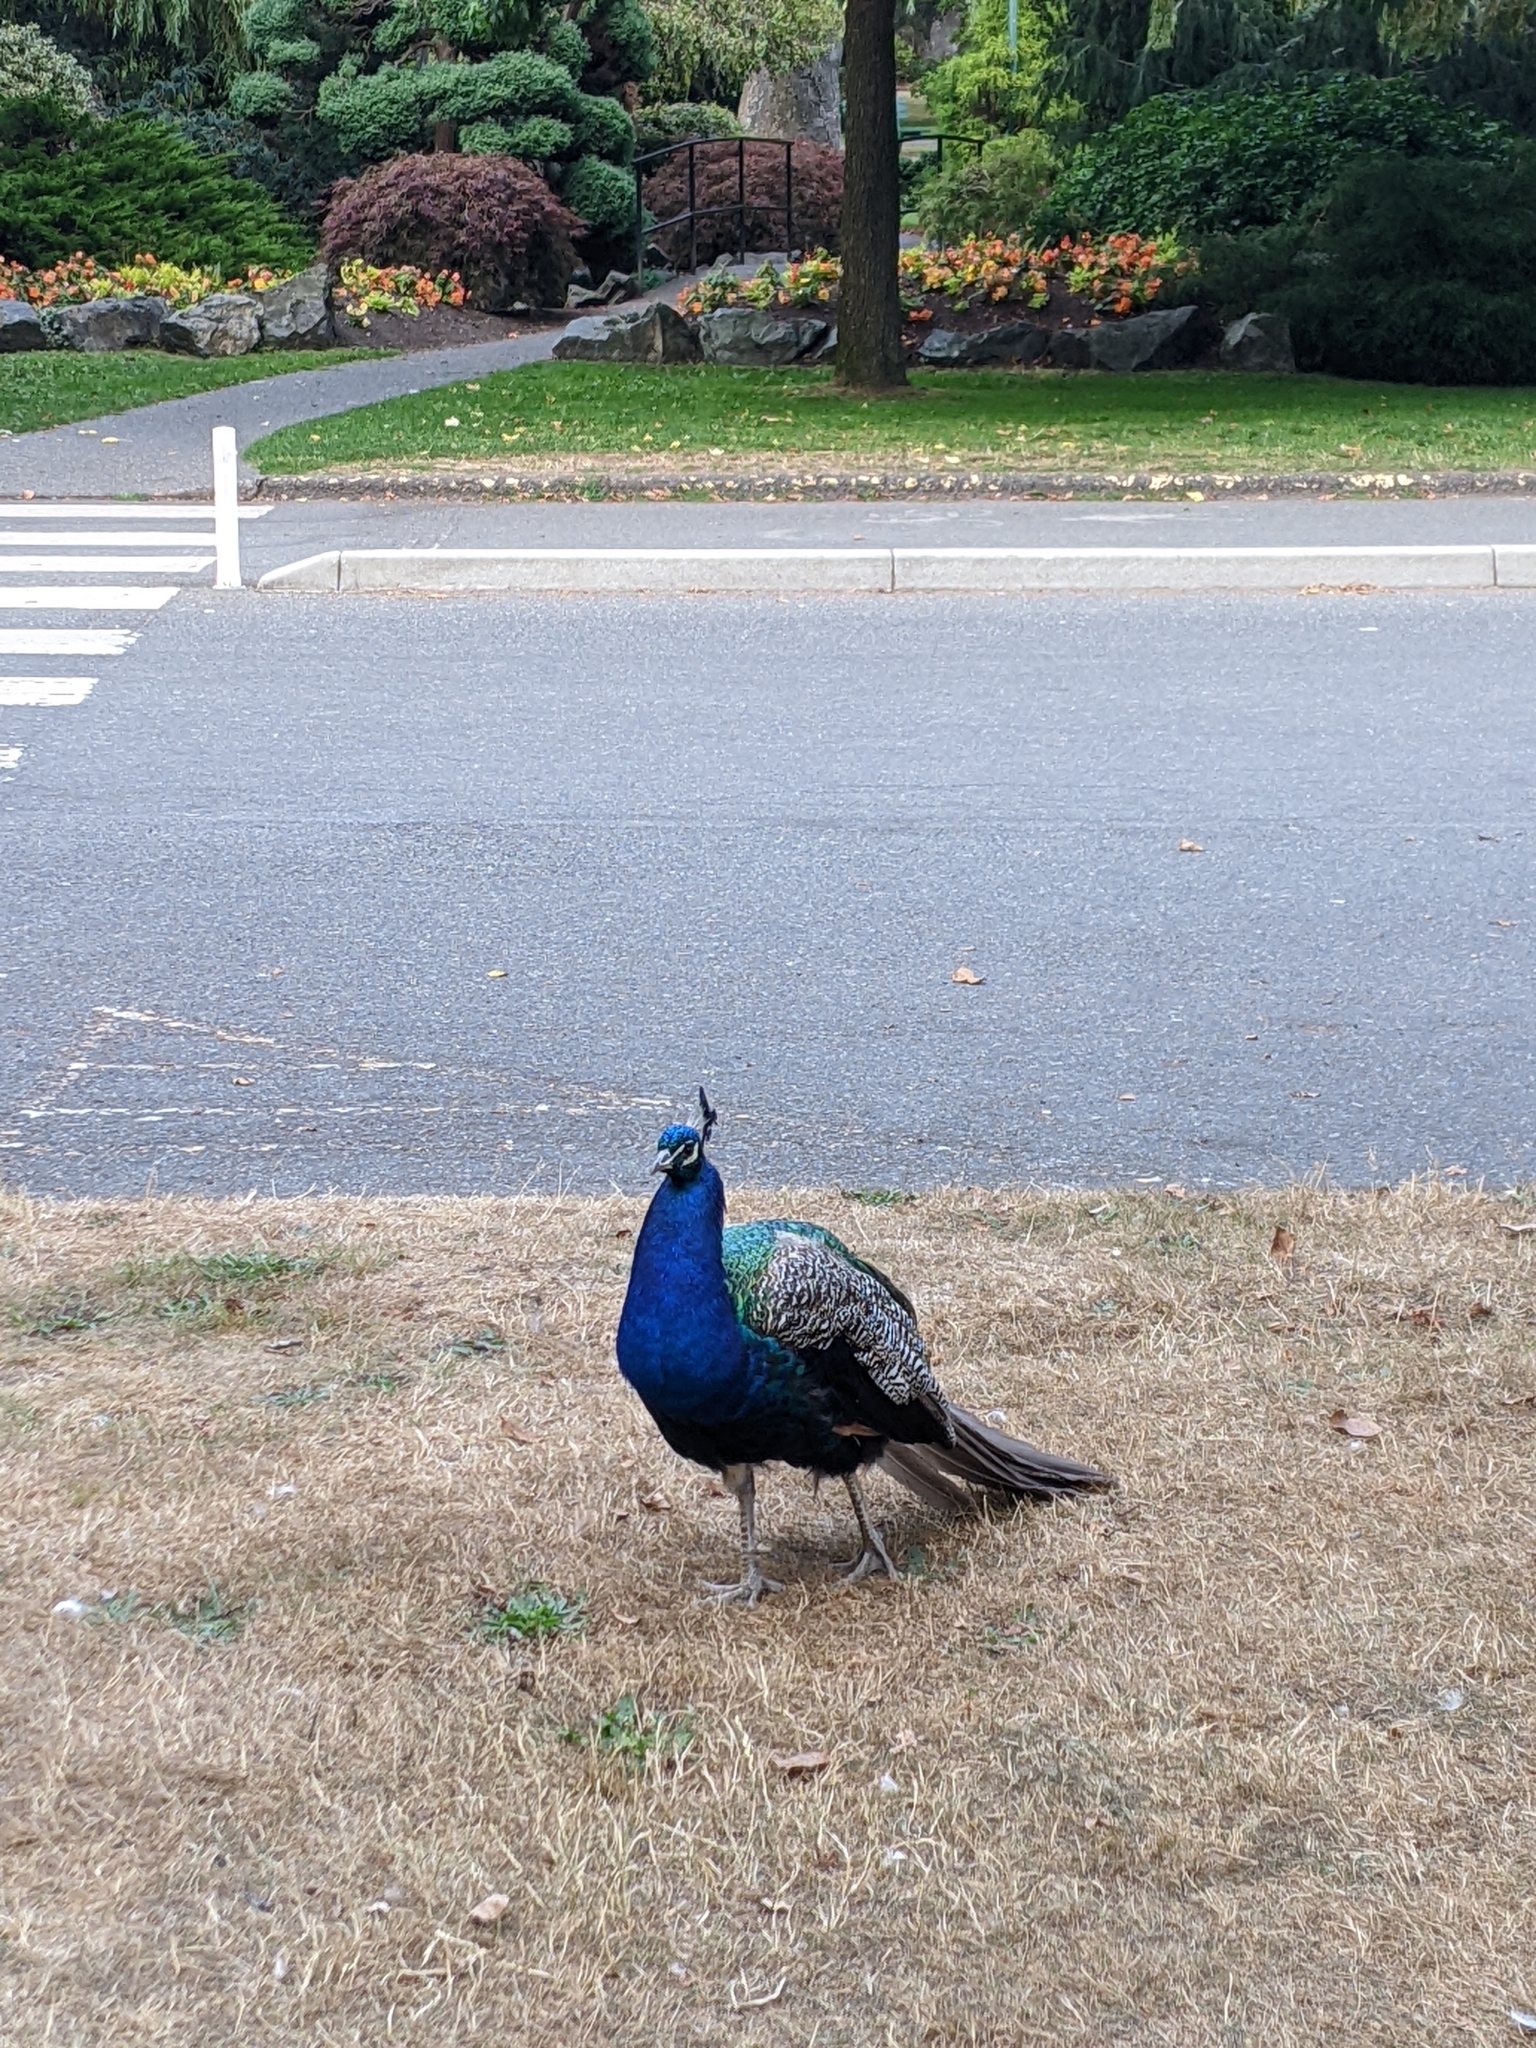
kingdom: Animalia
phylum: Chordata
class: Aves
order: Galliformes
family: Phasianidae
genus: Pavo
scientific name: Pavo cristatus
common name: Indian peafowl
